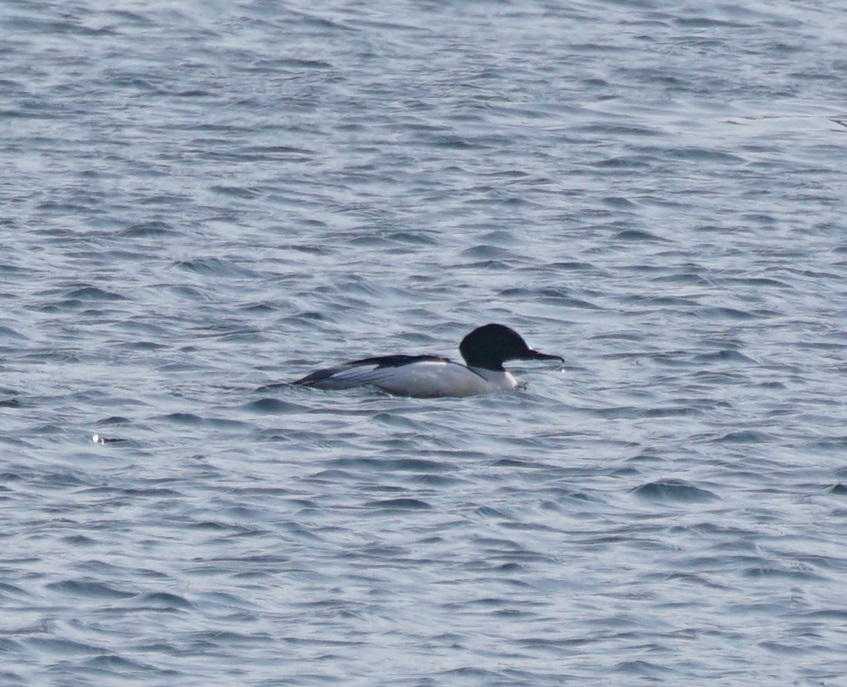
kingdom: Animalia
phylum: Chordata
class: Aves
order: Anseriformes
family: Anatidae
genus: Mergus
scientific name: Mergus merganser
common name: Common merganser
